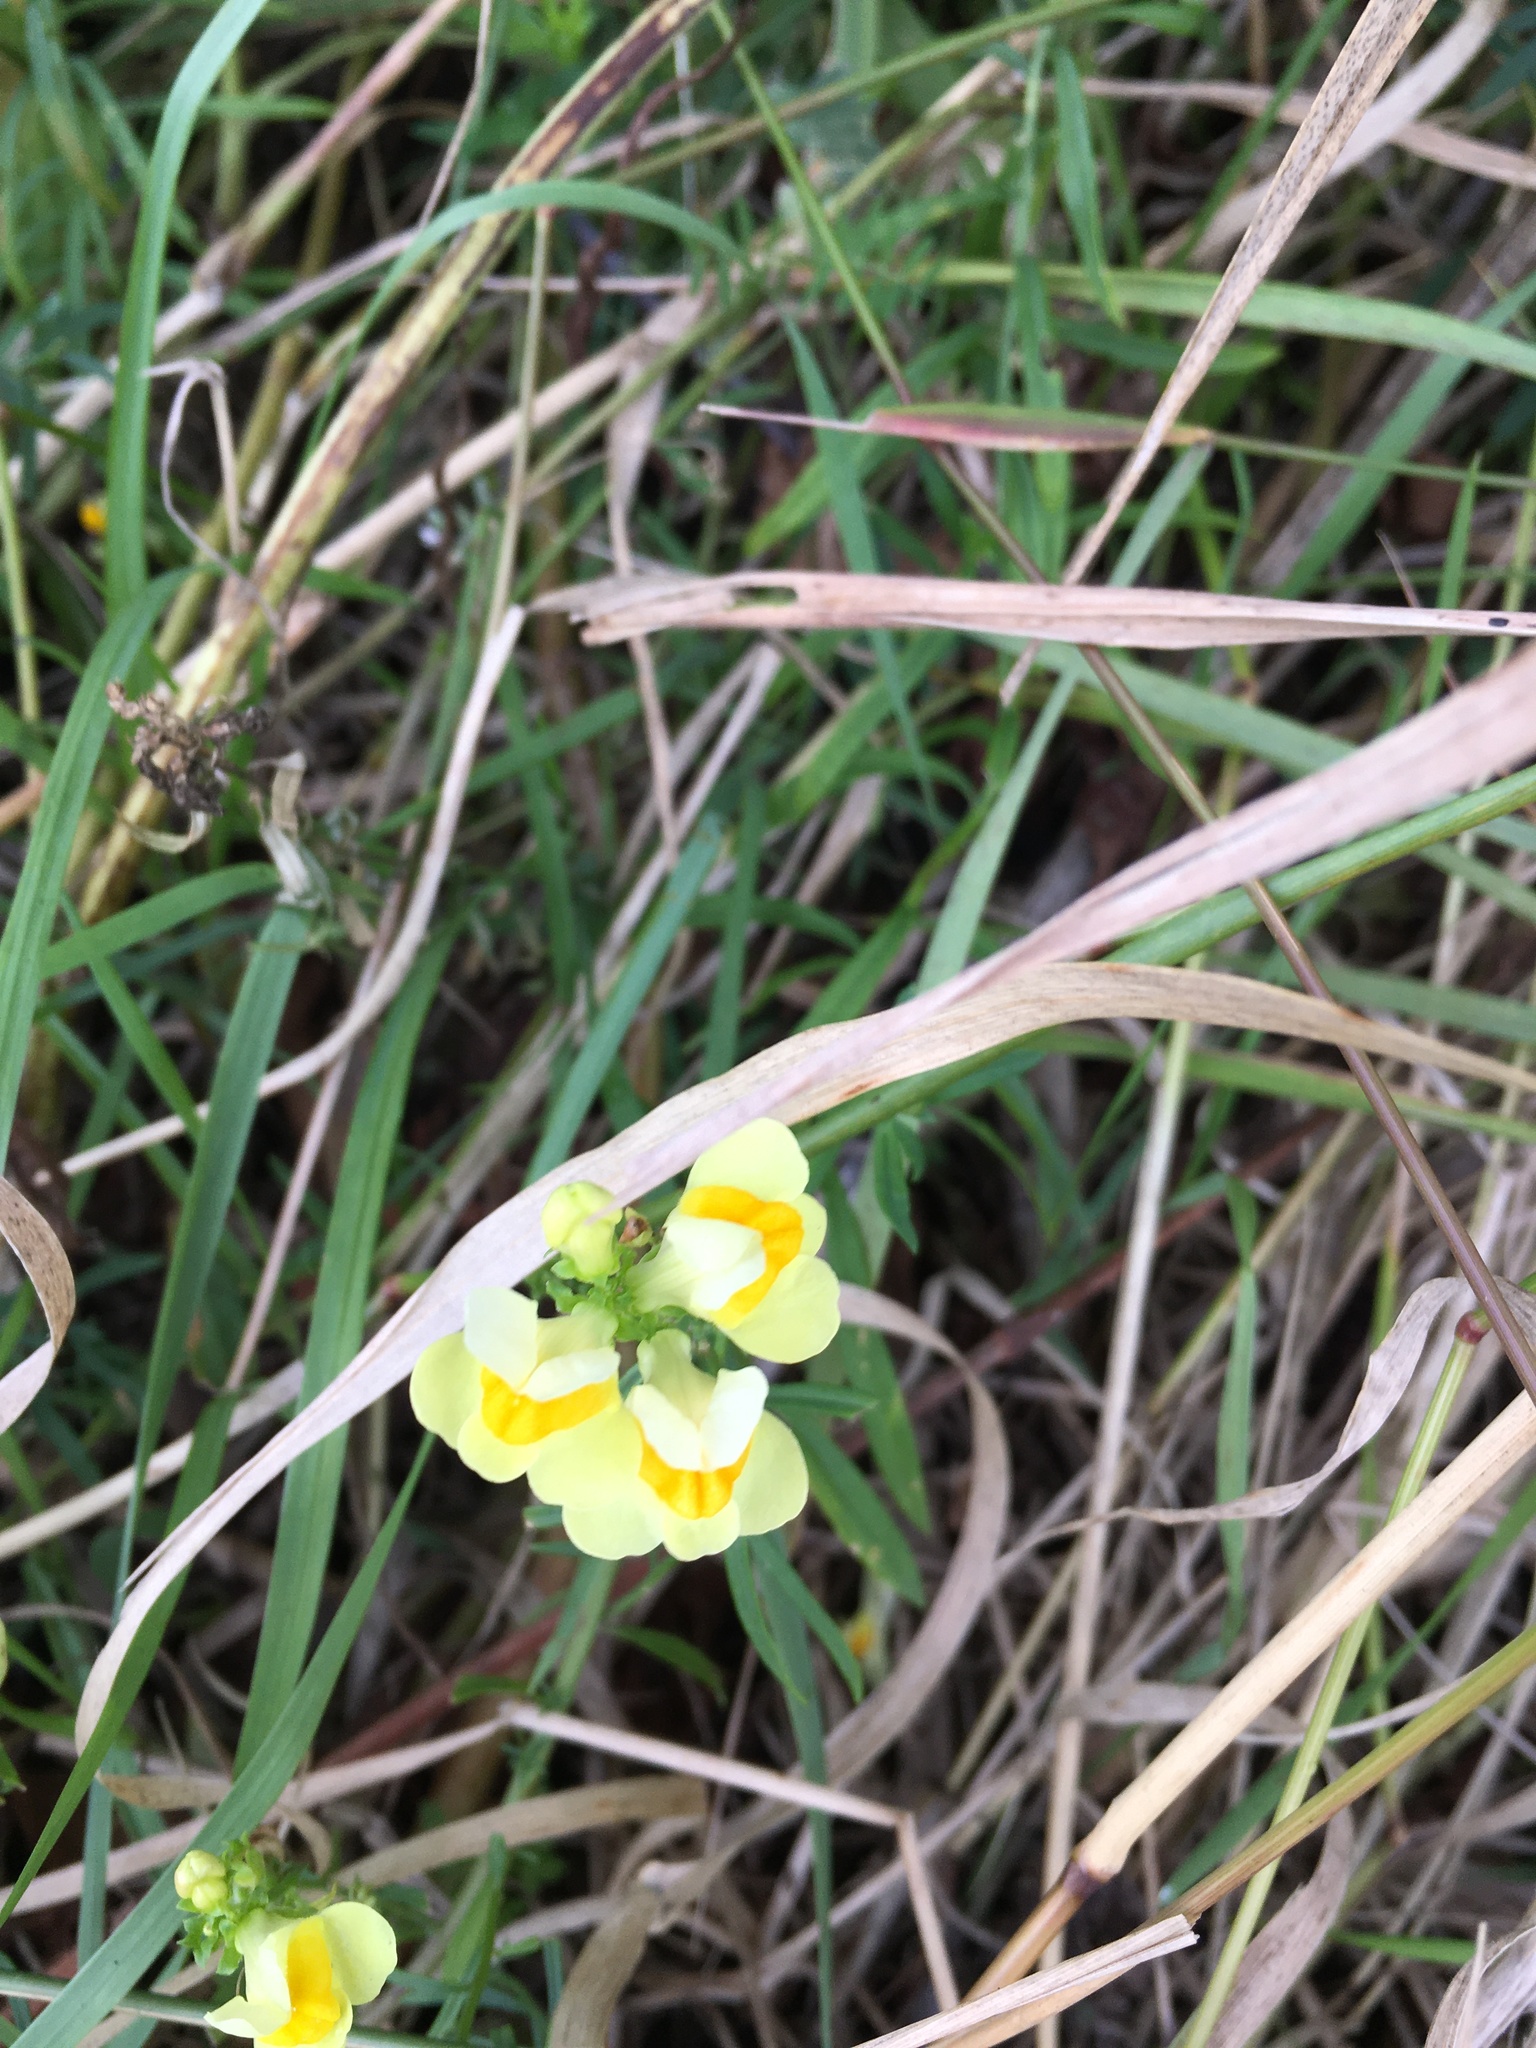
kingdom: Plantae
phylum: Tracheophyta
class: Magnoliopsida
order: Lamiales
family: Plantaginaceae
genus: Linaria
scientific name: Linaria vulgaris
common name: Butter and eggs
